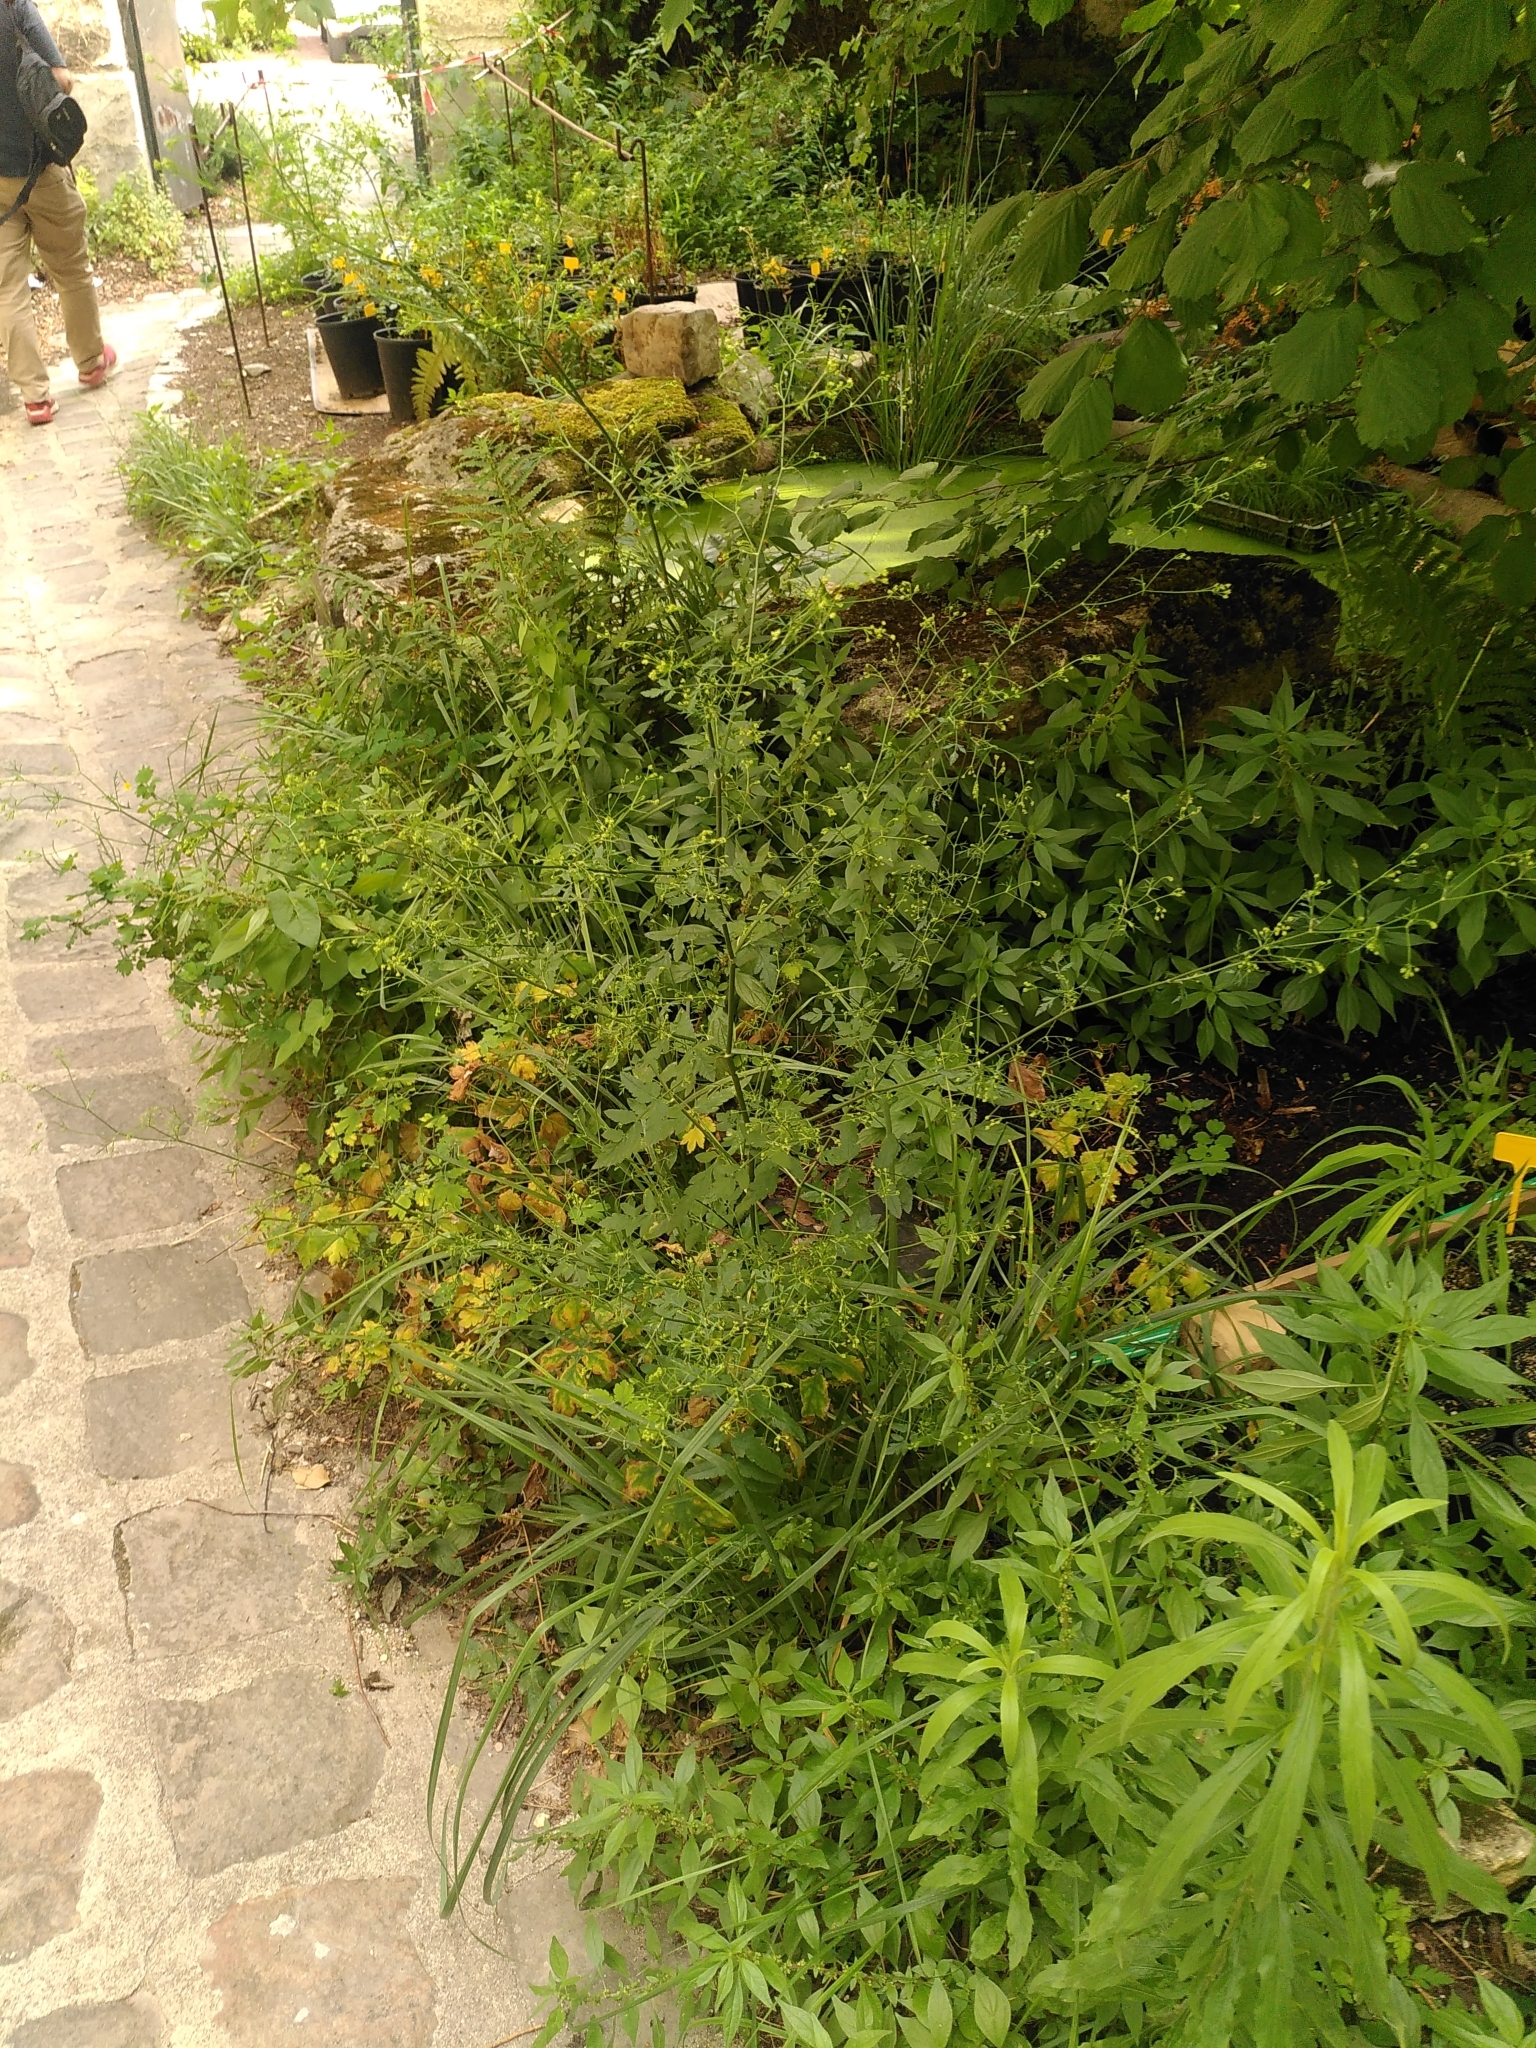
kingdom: Plantae
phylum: Tracheophyta
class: Magnoliopsida
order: Apiales
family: Apiaceae
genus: Sison
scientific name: Sison amomum
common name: Stone-parsley
